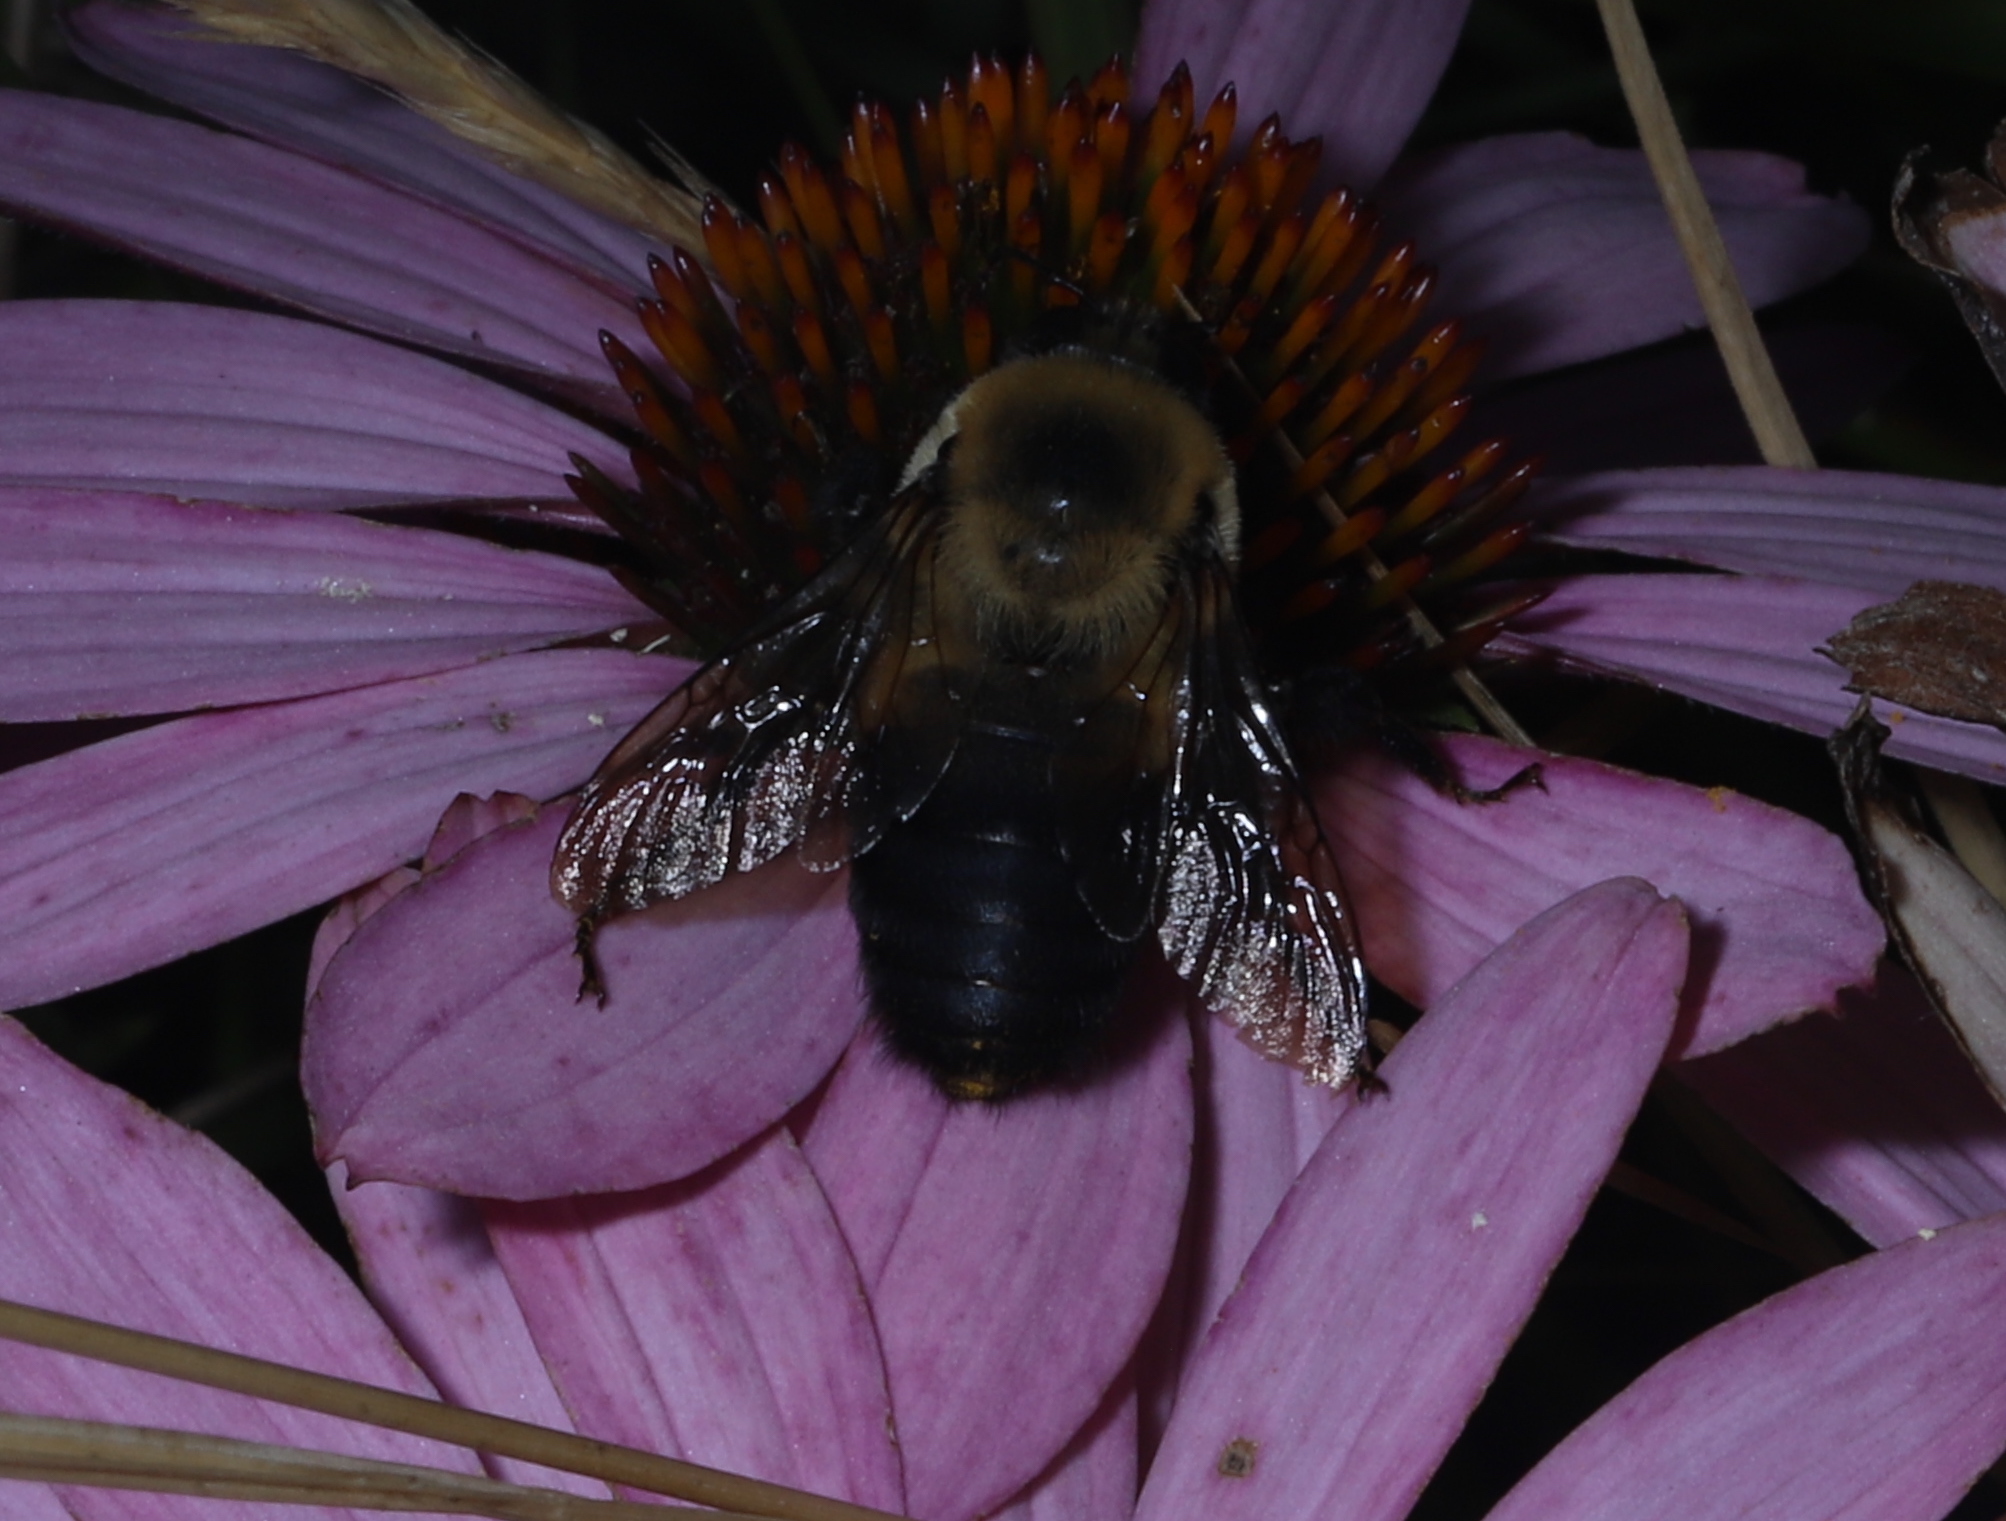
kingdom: Animalia
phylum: Arthropoda
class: Insecta
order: Hymenoptera
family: Apidae
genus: Bombus
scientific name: Bombus griseocollis
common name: Brown-belted bumble bee
